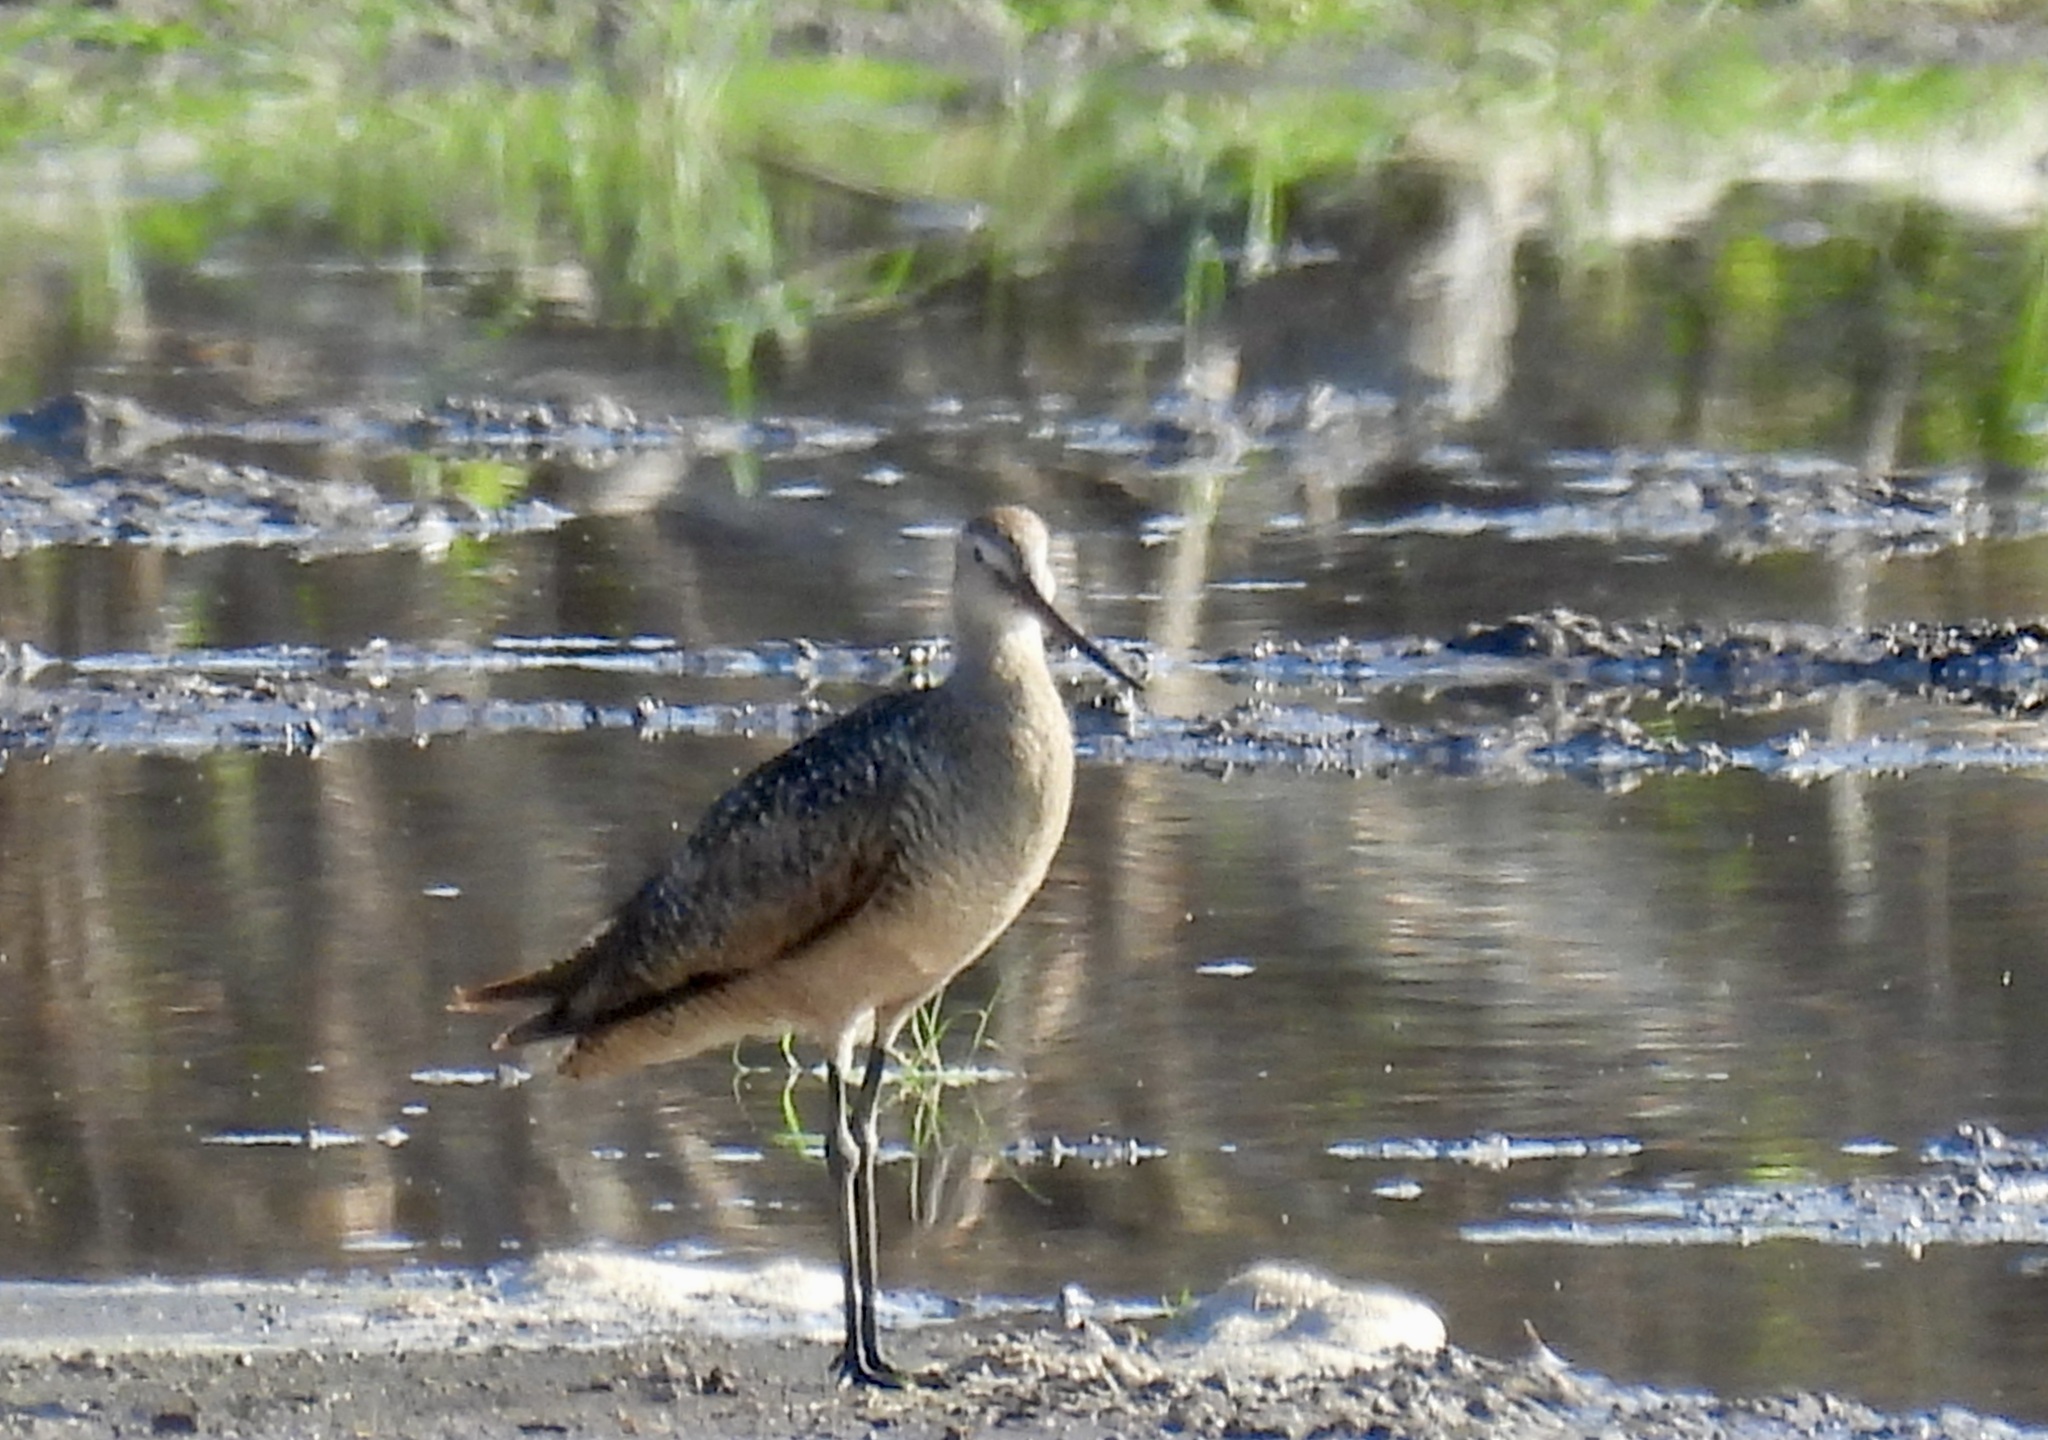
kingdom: Animalia
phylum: Chordata
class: Aves
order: Charadriiformes
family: Scolopacidae
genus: Limosa
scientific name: Limosa fedoa
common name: Marbled godwit
